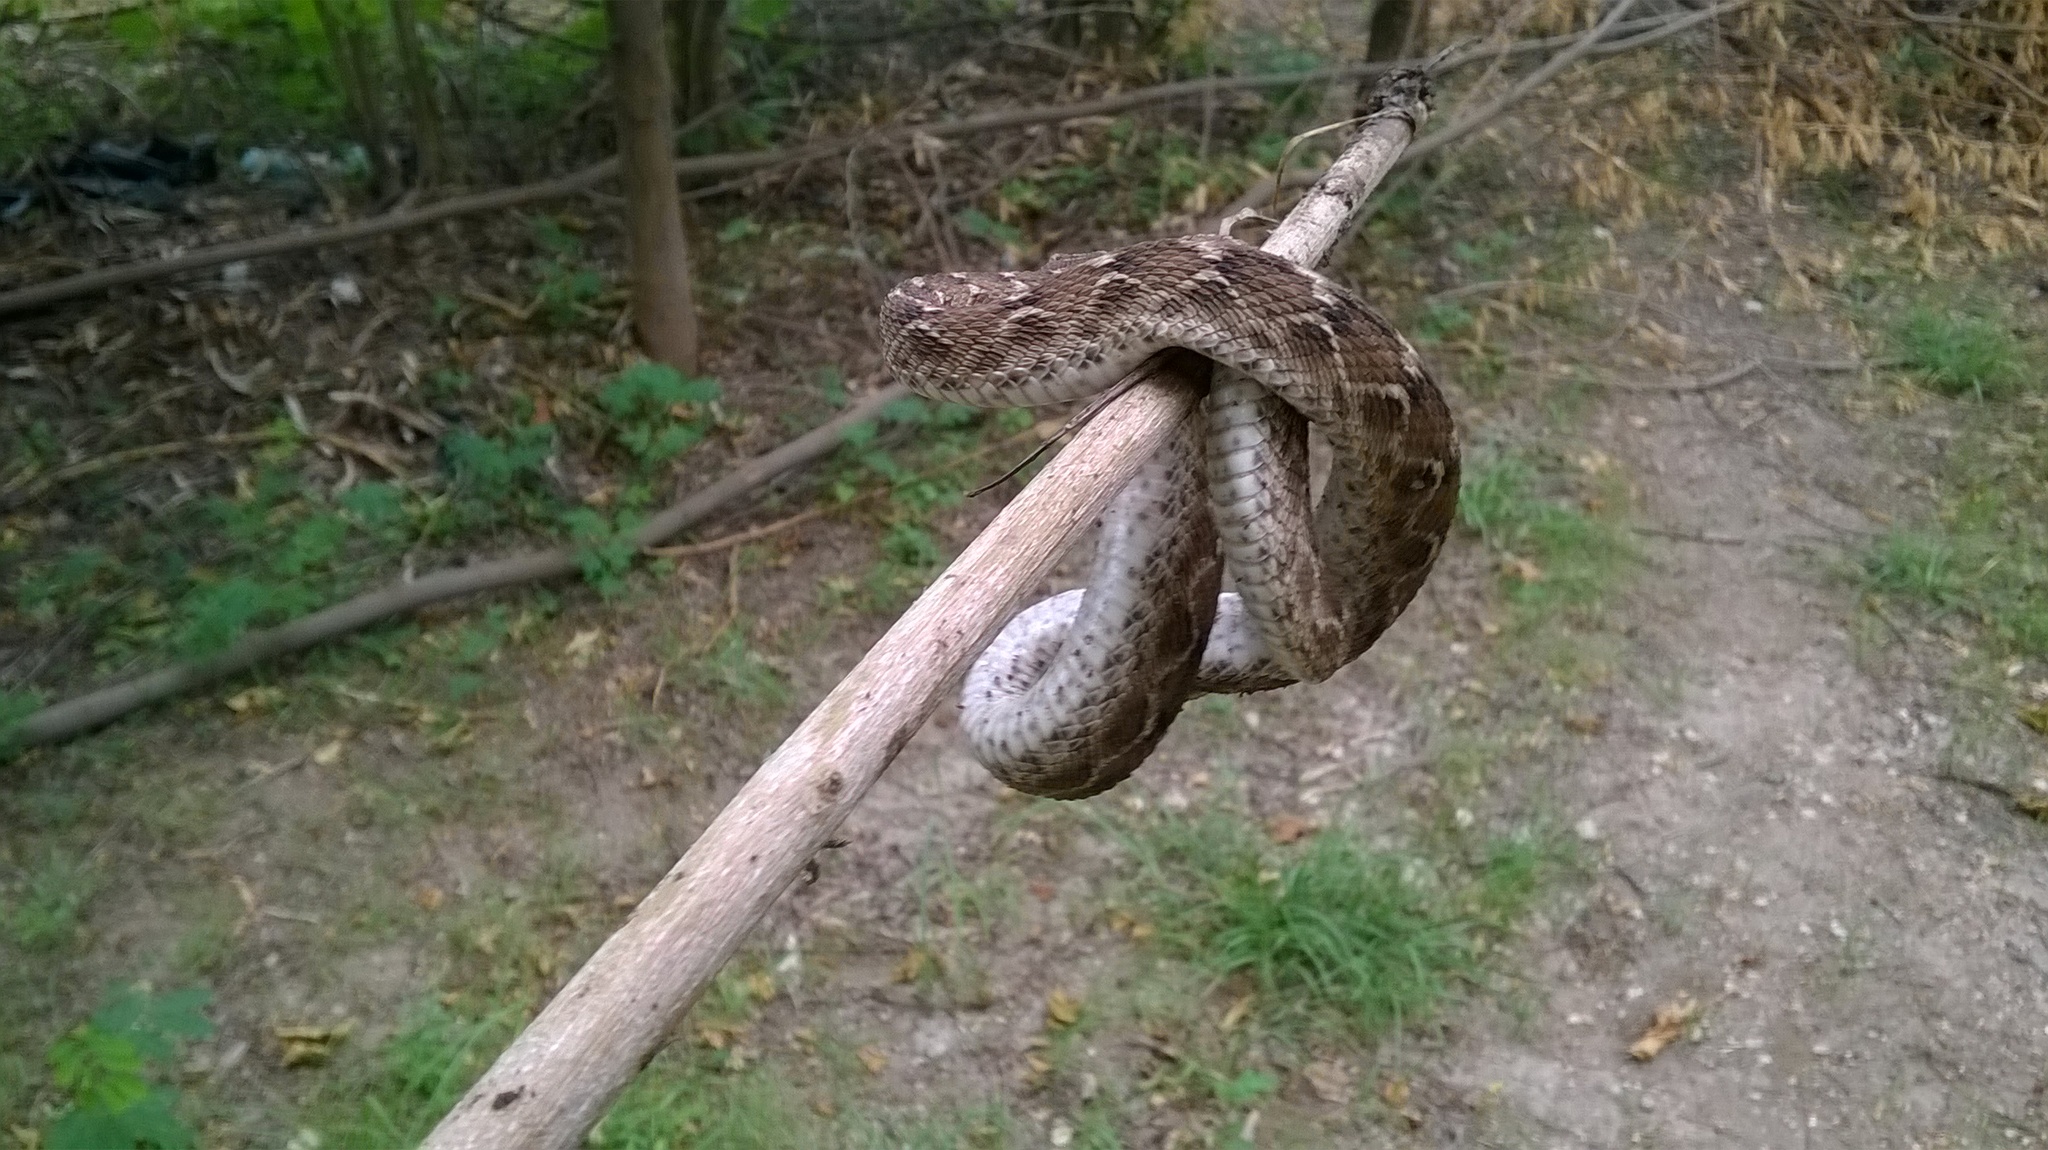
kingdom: Animalia
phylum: Chordata
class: Squamata
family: Viperidae
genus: Echis
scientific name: Echis carinatus
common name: Saw-scaled viper
